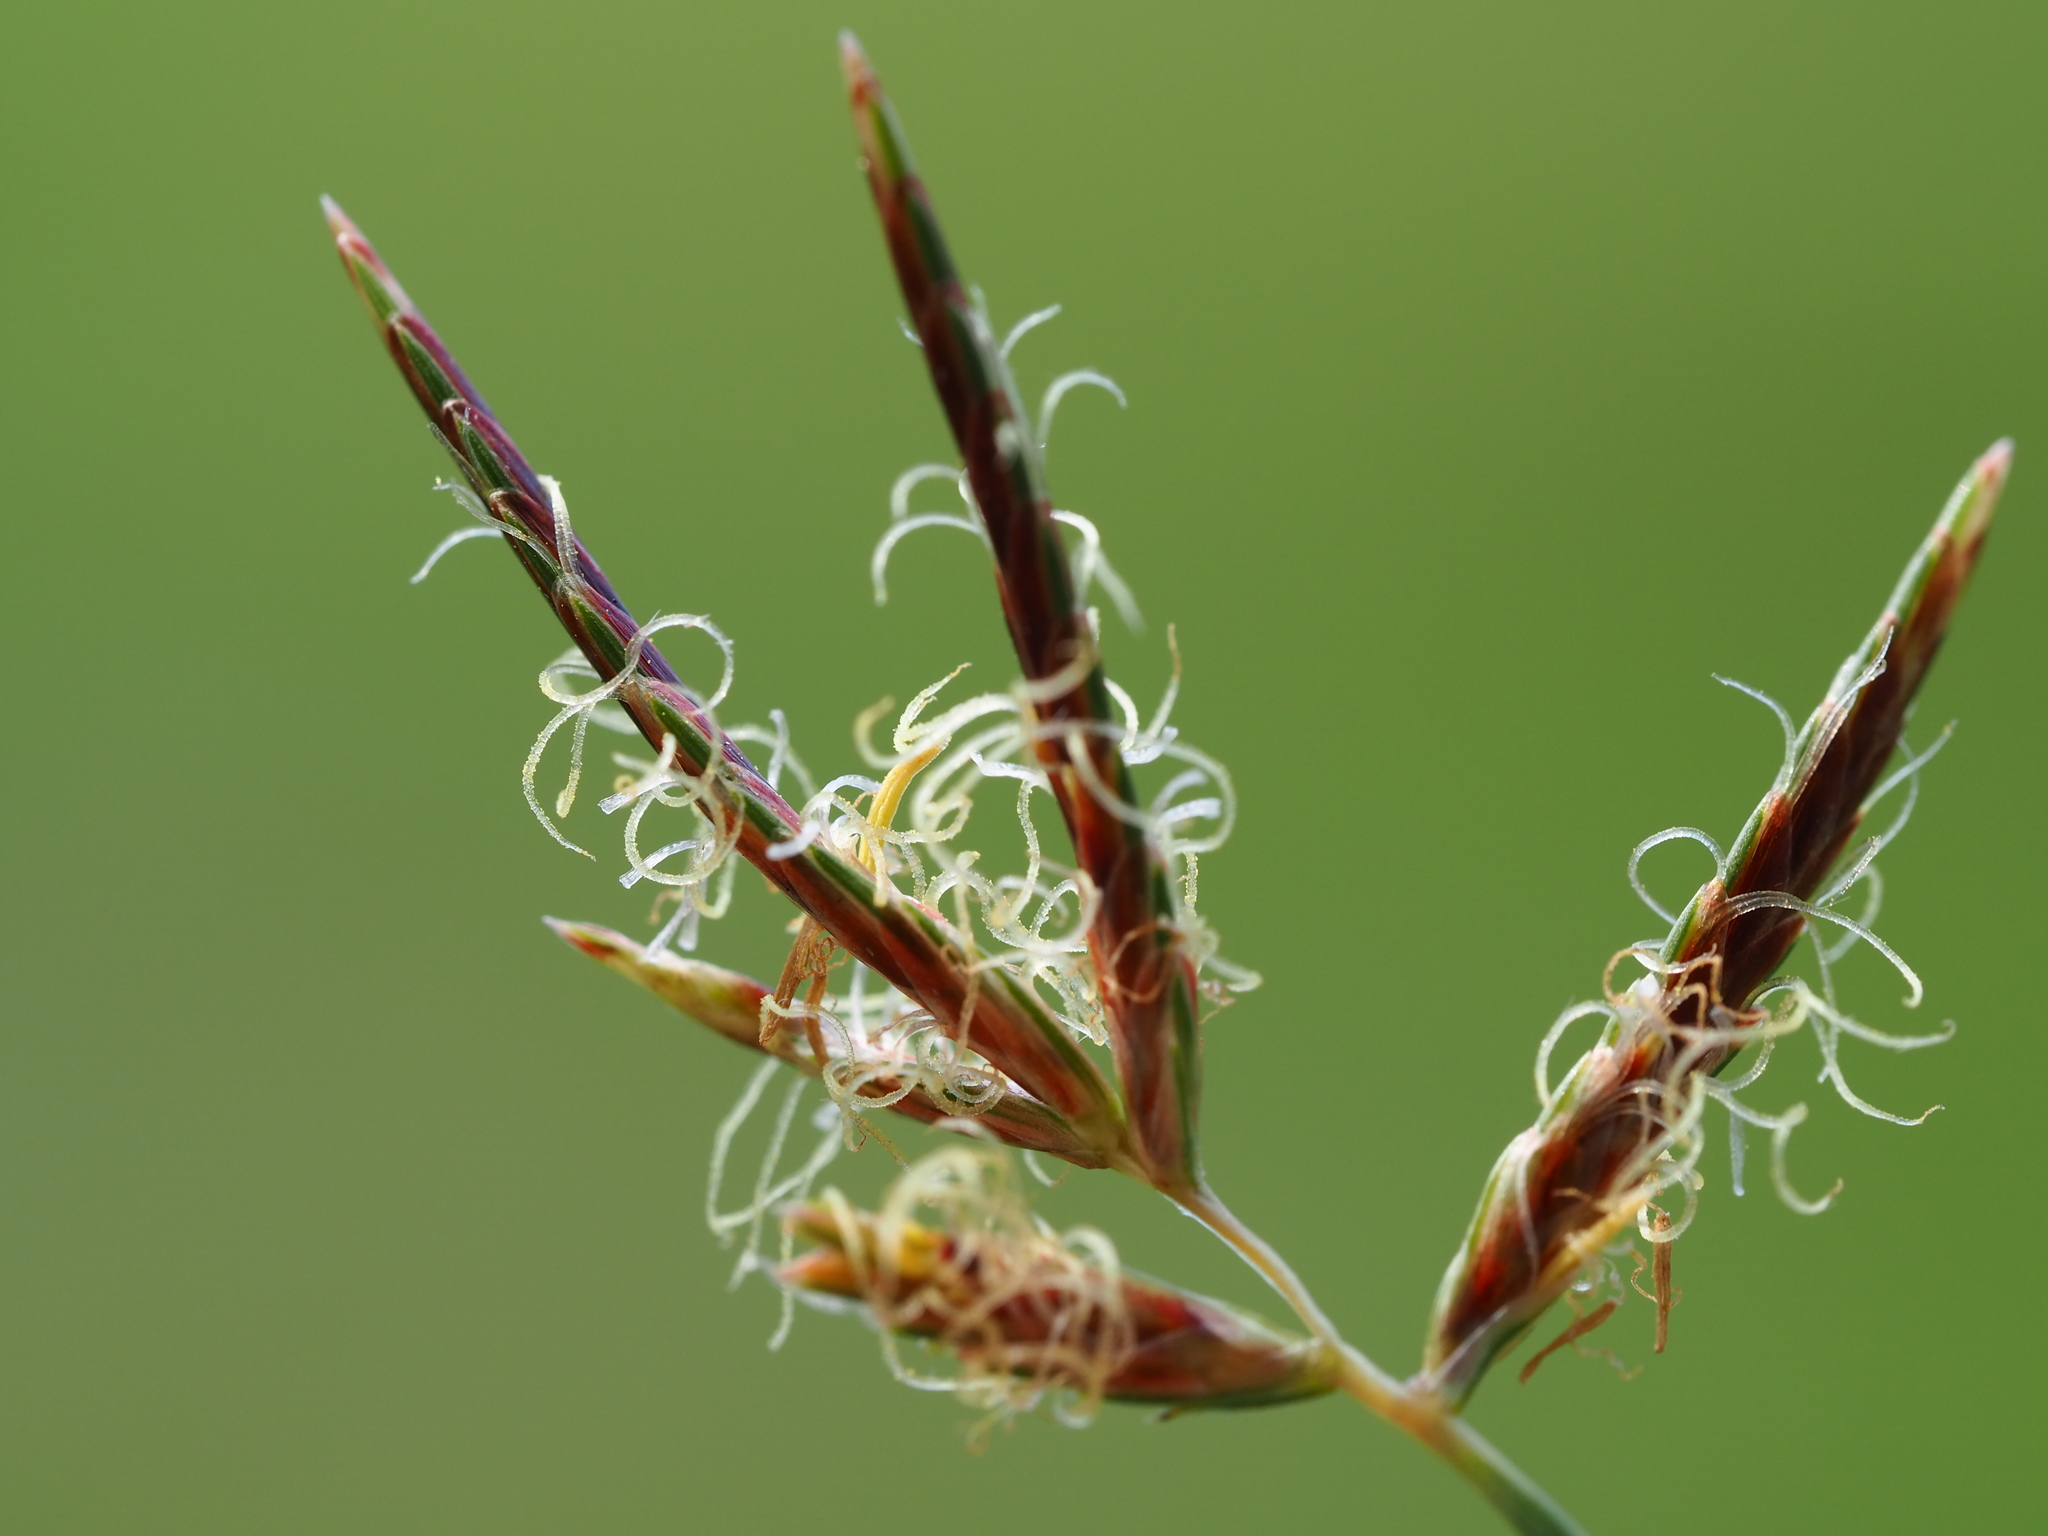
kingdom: Plantae
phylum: Tracheophyta
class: Liliopsida
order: Poales
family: Cyperaceae
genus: Cyperus
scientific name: Cyperus rotundus
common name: Nutgrass
